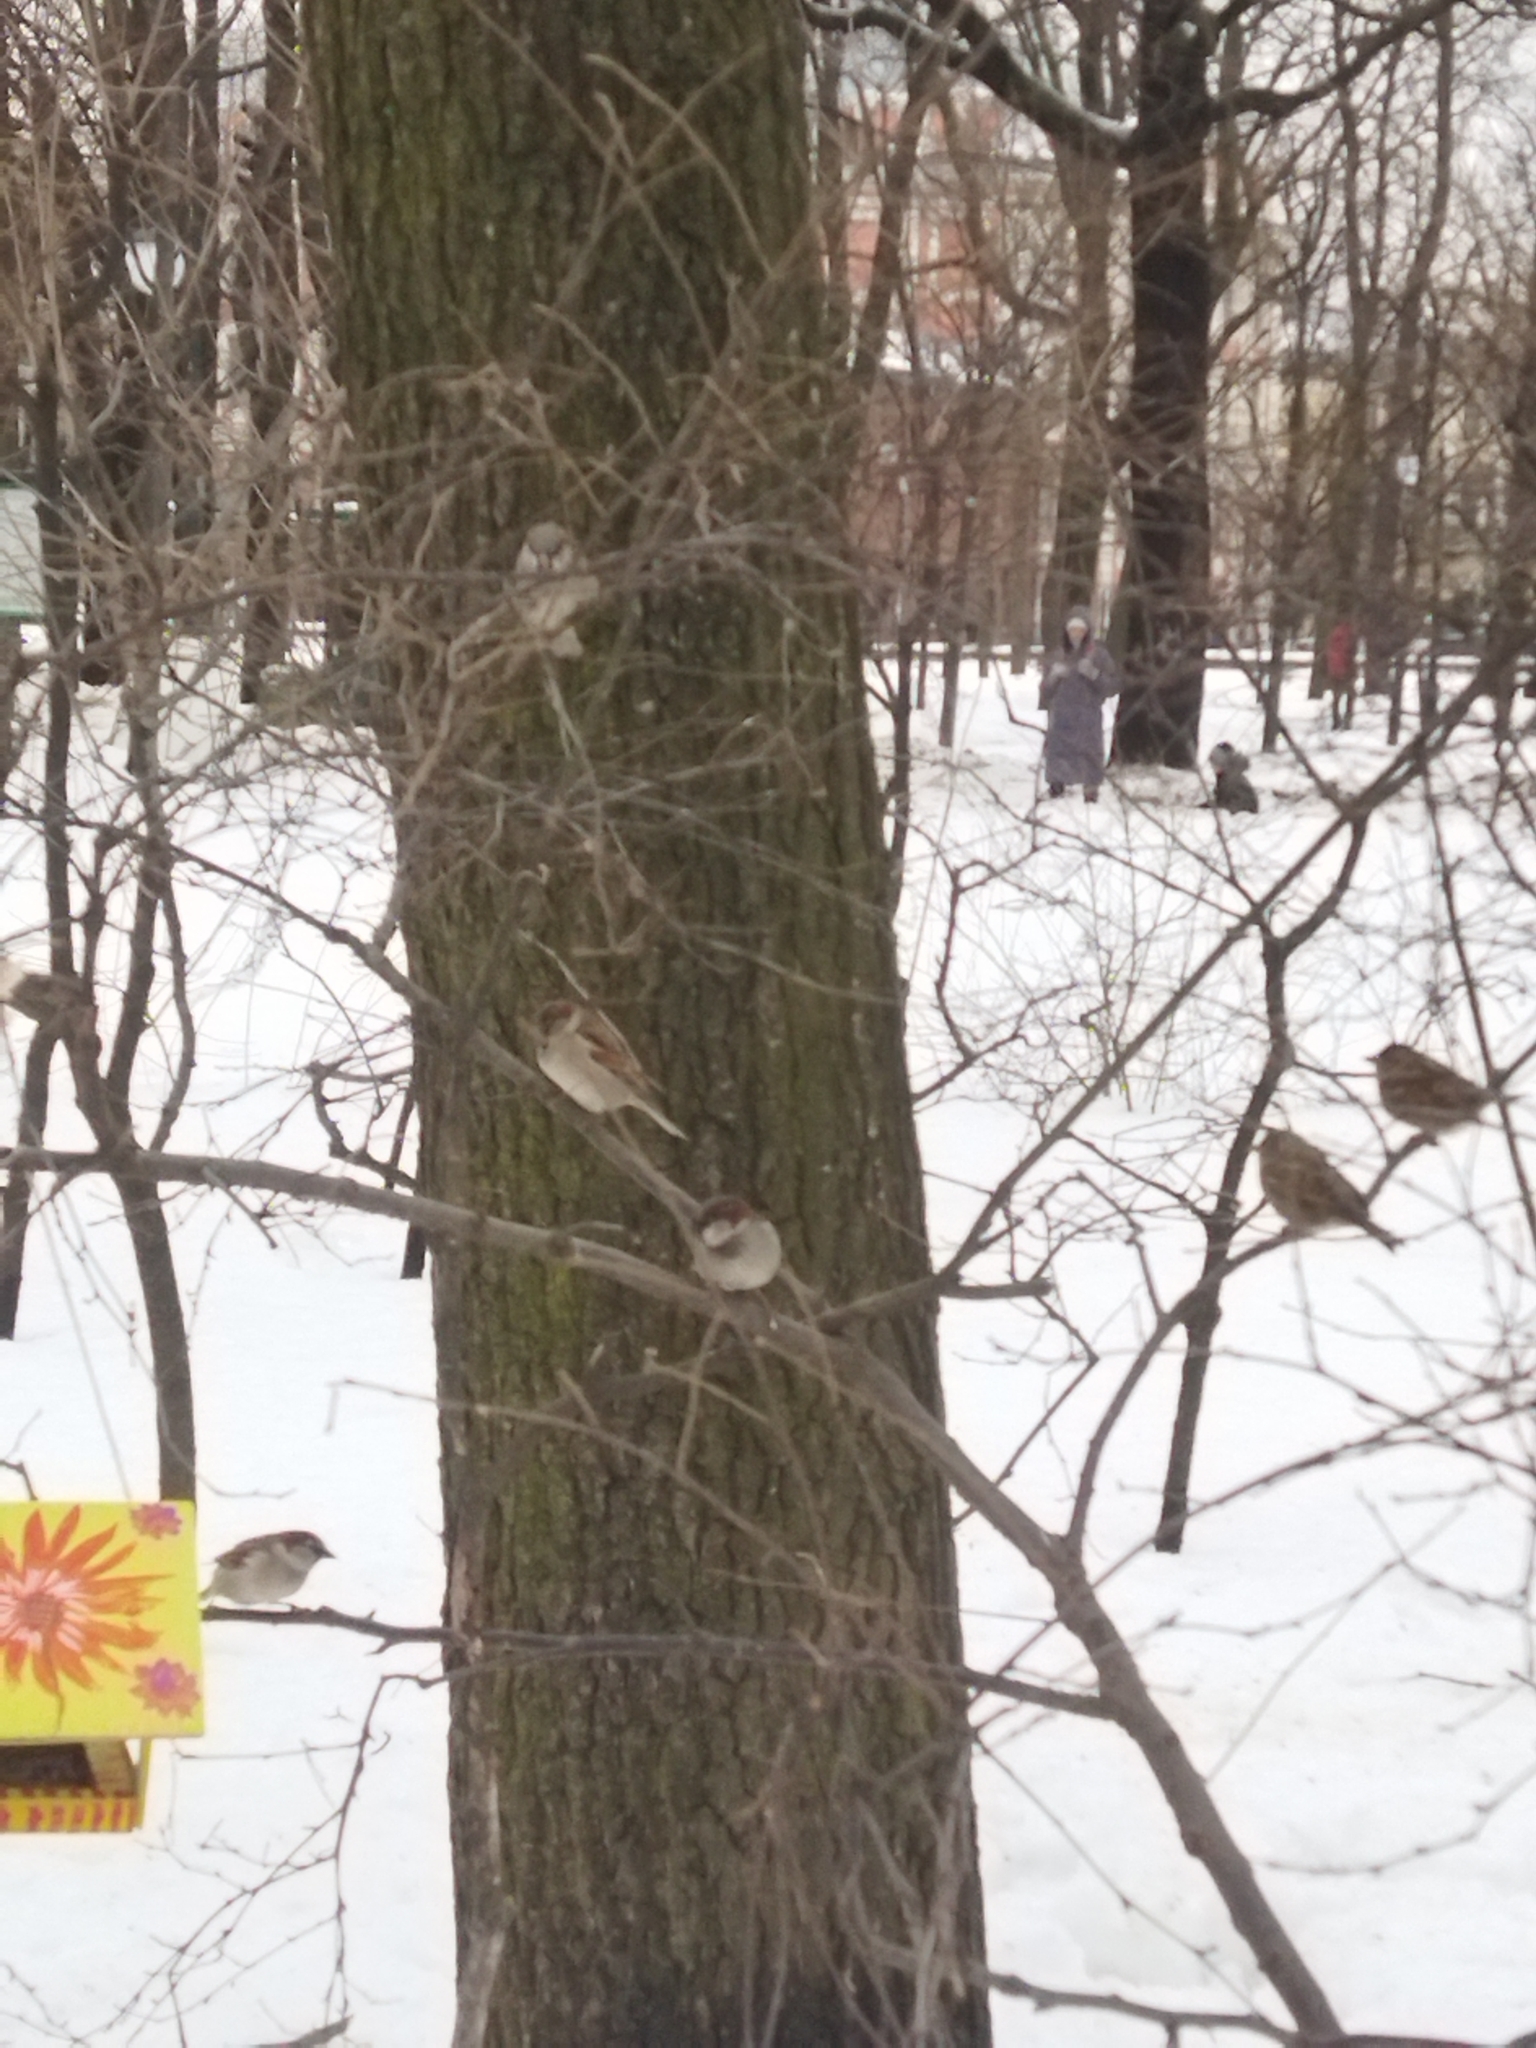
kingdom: Animalia
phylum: Chordata
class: Aves
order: Passeriformes
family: Passeridae
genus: Passer
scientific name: Passer domesticus
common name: House sparrow
